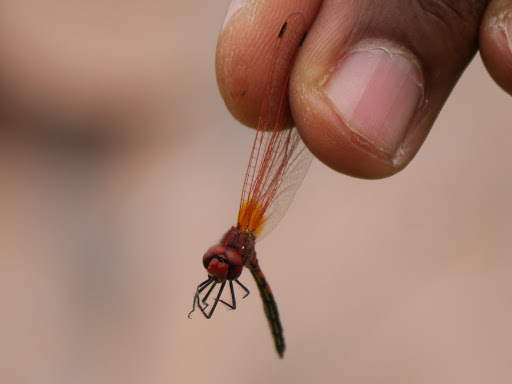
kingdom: Animalia
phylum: Arthropoda
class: Insecta
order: Odonata
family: Libellulidae
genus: Trithemis
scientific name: Trithemis arteriosa
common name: Red-veined dropwing
